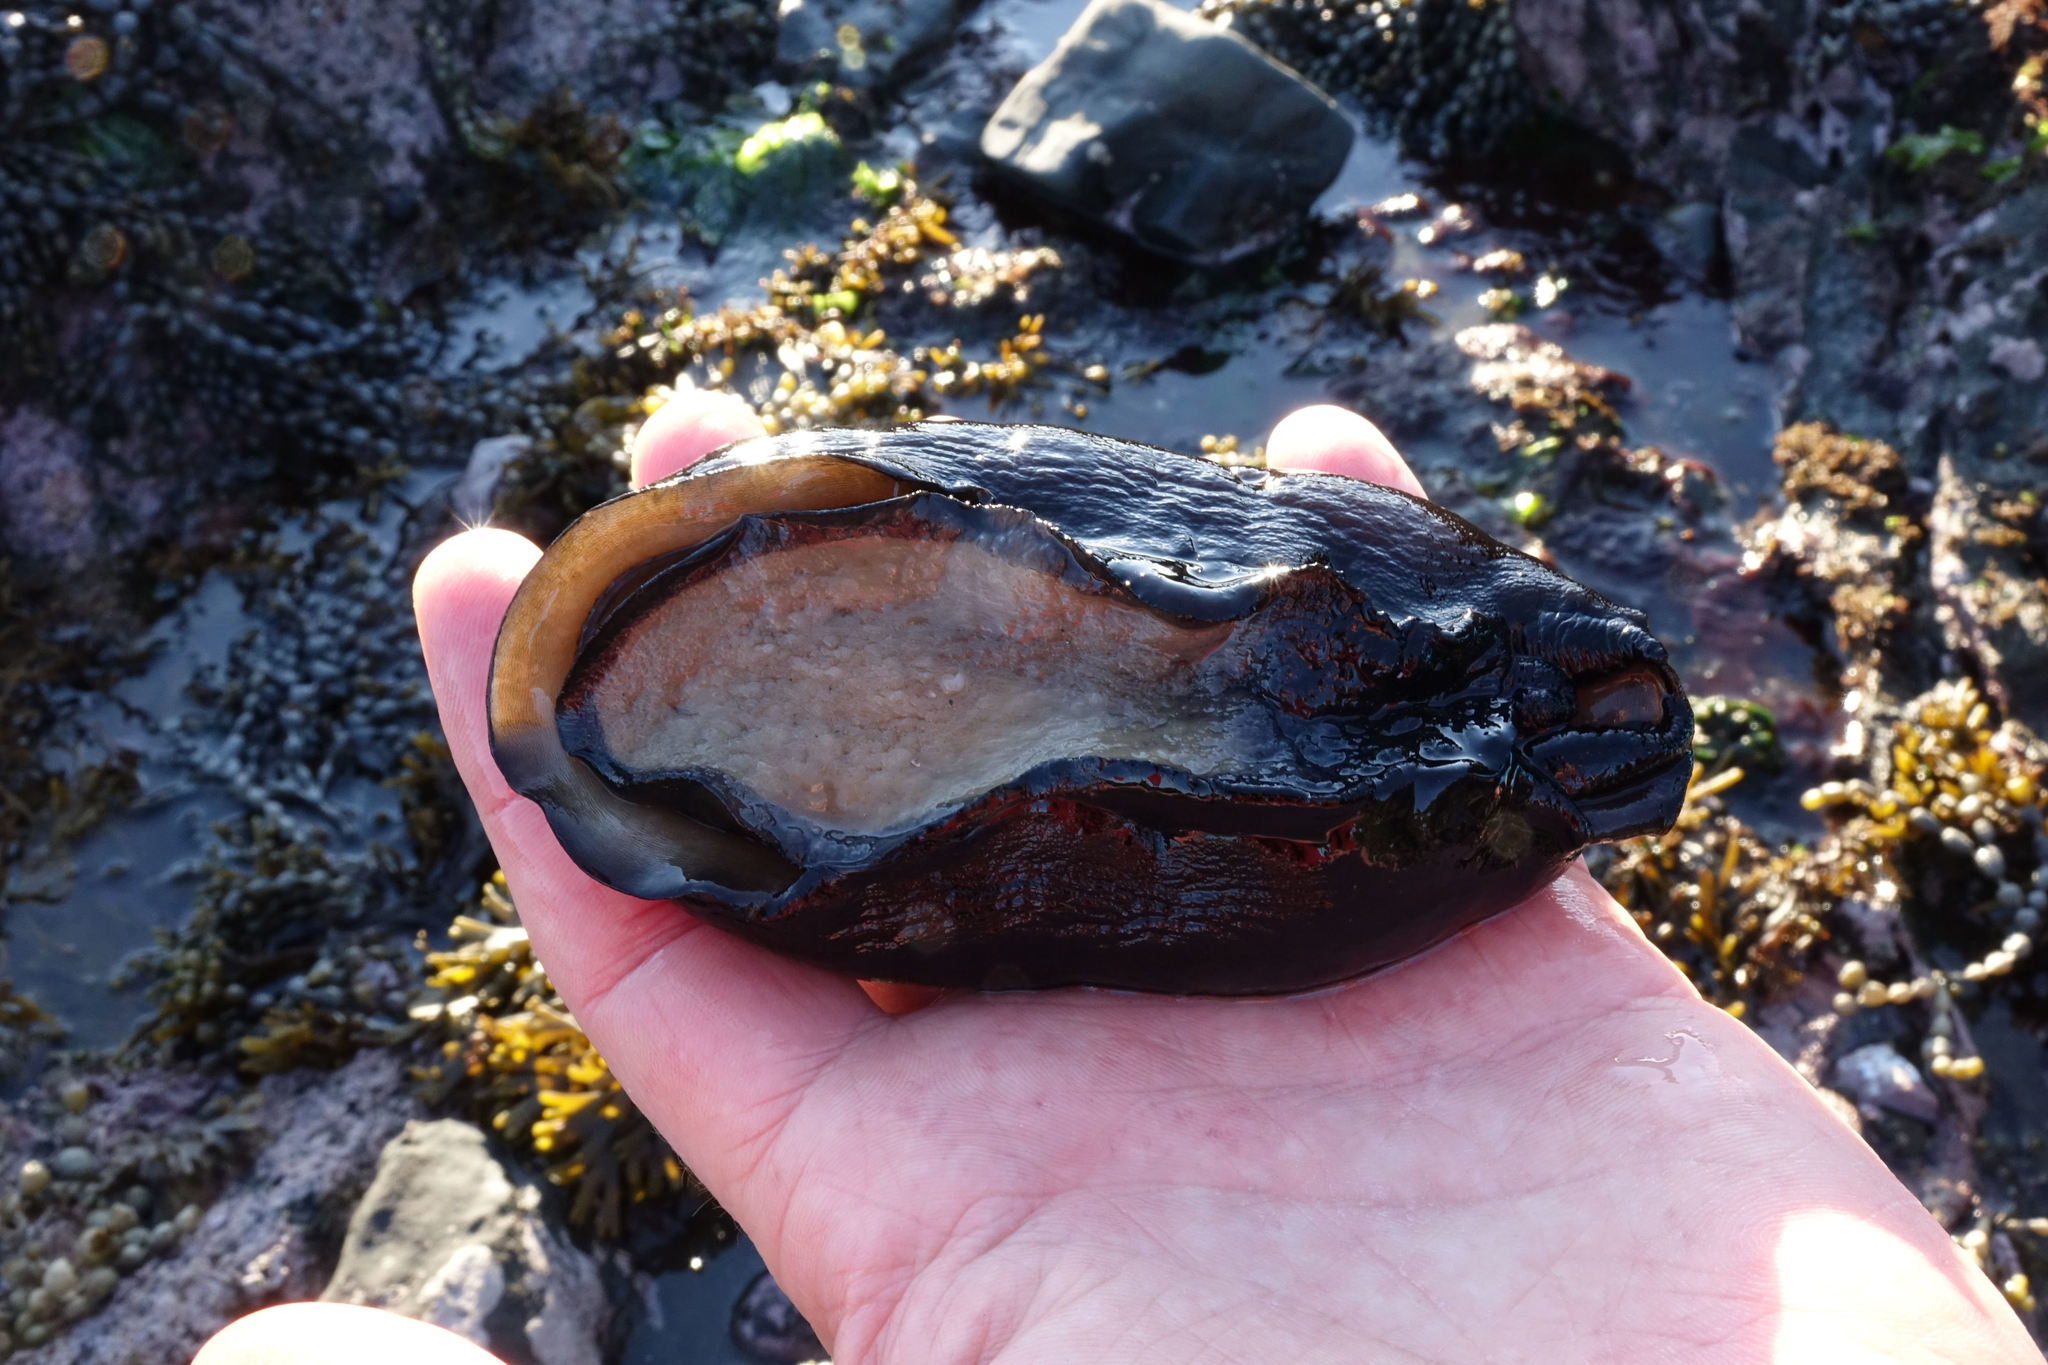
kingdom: Animalia
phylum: Mollusca
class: Gastropoda
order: Lepetellida
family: Fissurellidae
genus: Scutus
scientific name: Scutus breviculus
